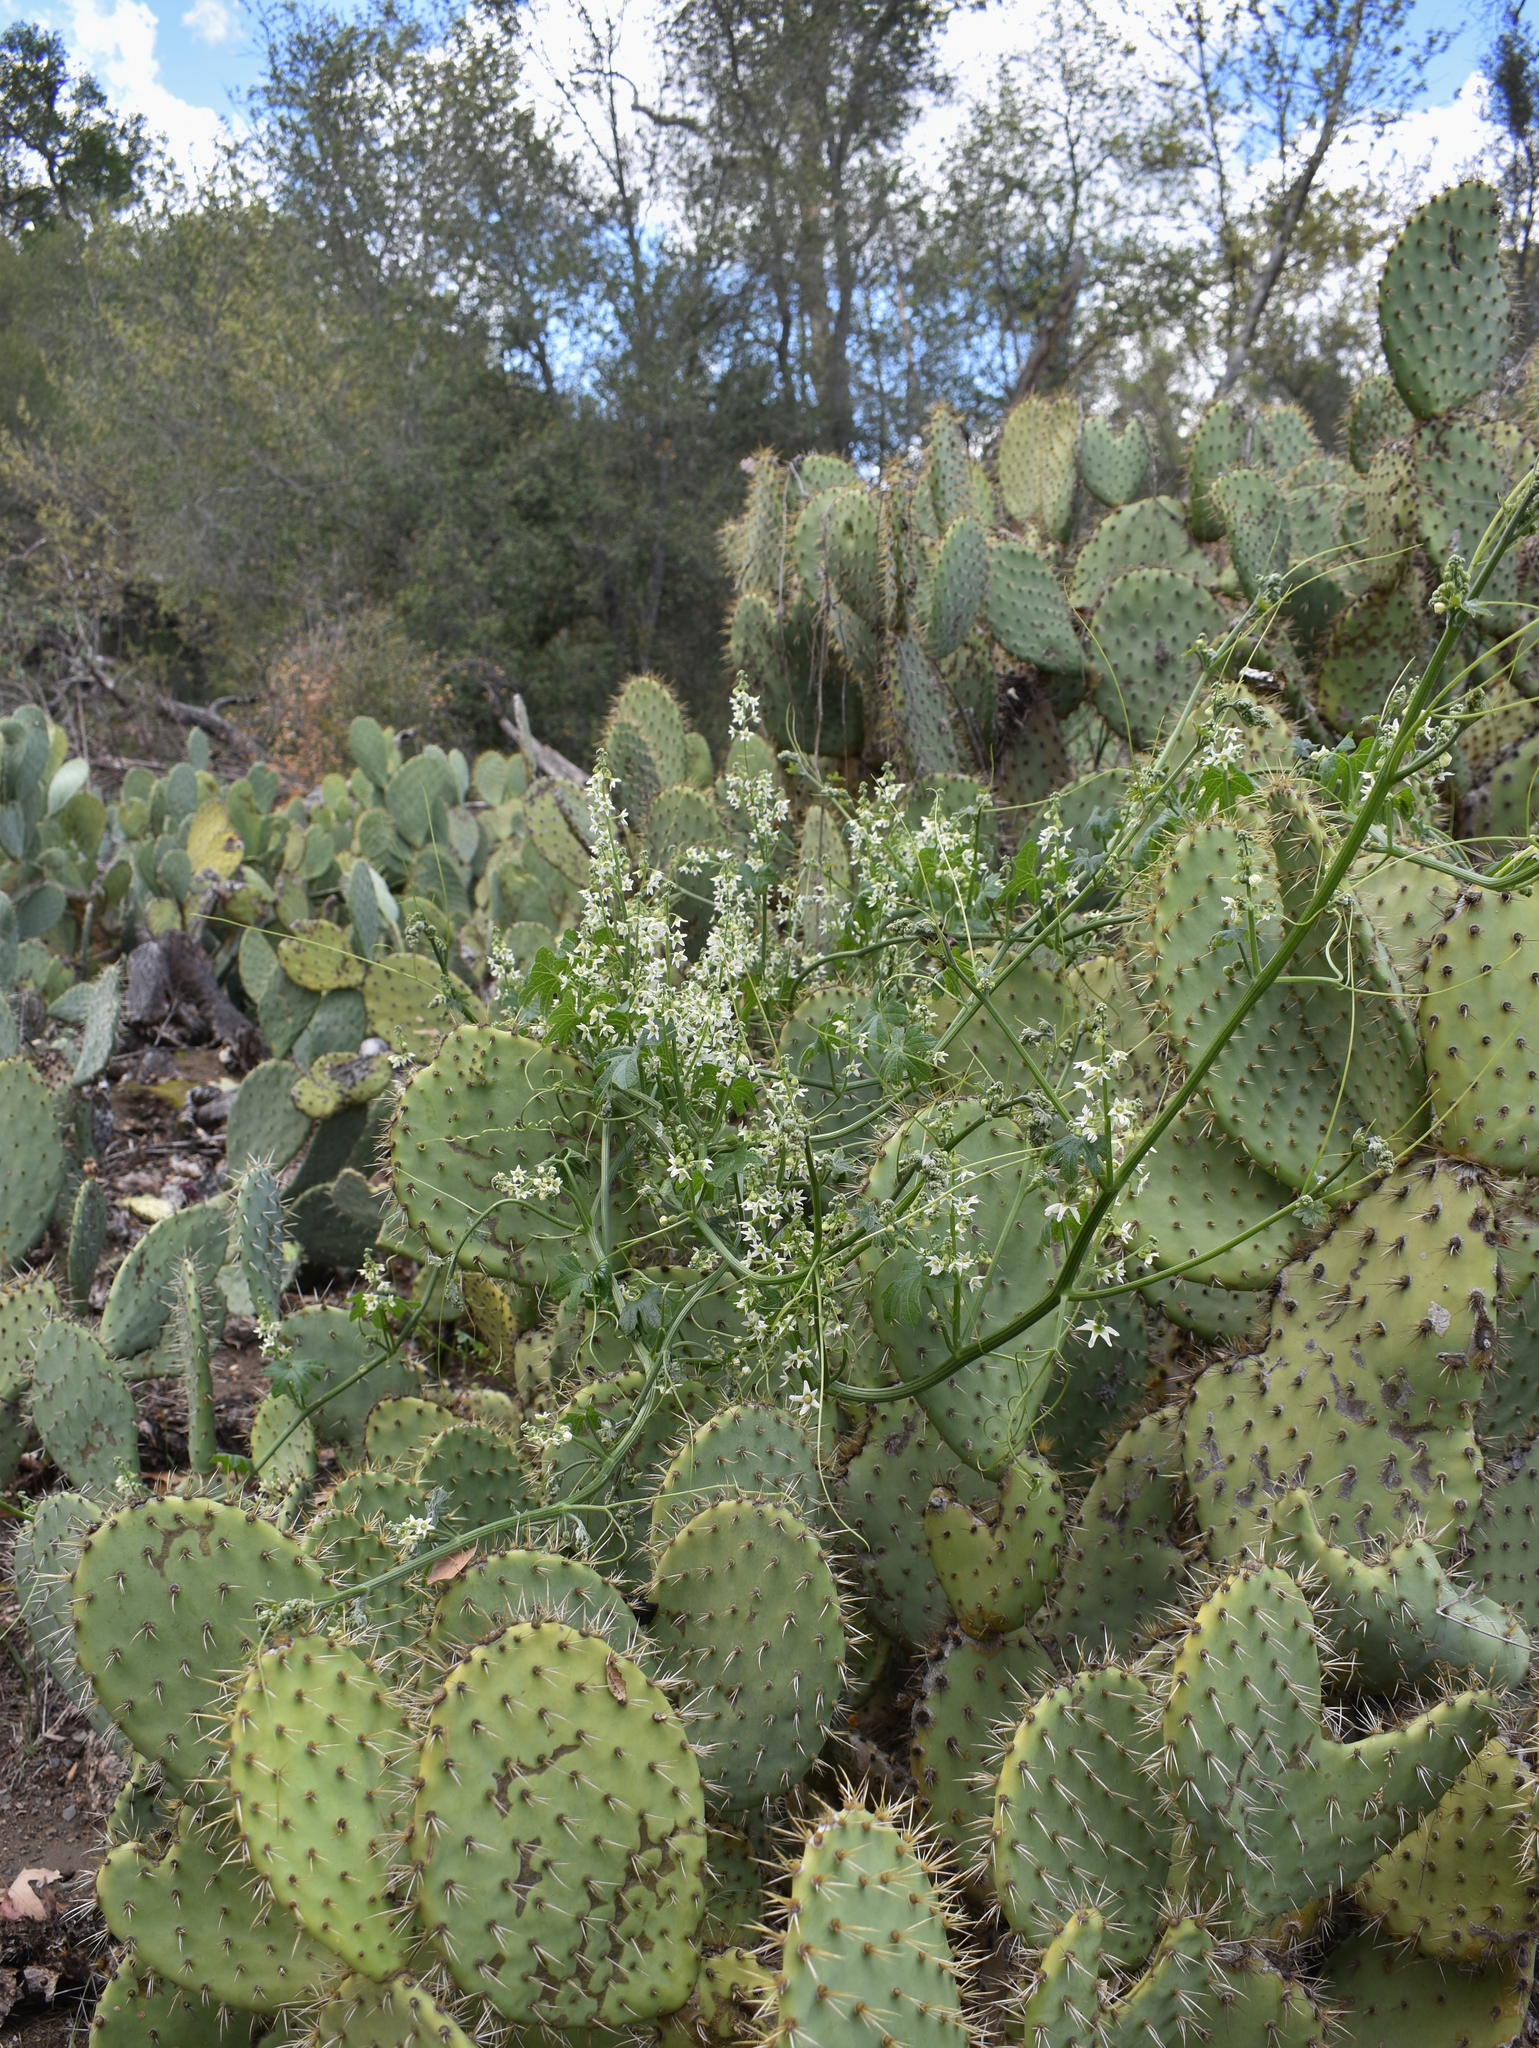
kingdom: Plantae
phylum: Tracheophyta
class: Magnoliopsida
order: Cucurbitales
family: Cucurbitaceae
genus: Marah
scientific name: Marah macrocarpa
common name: Cucamonga manroot
